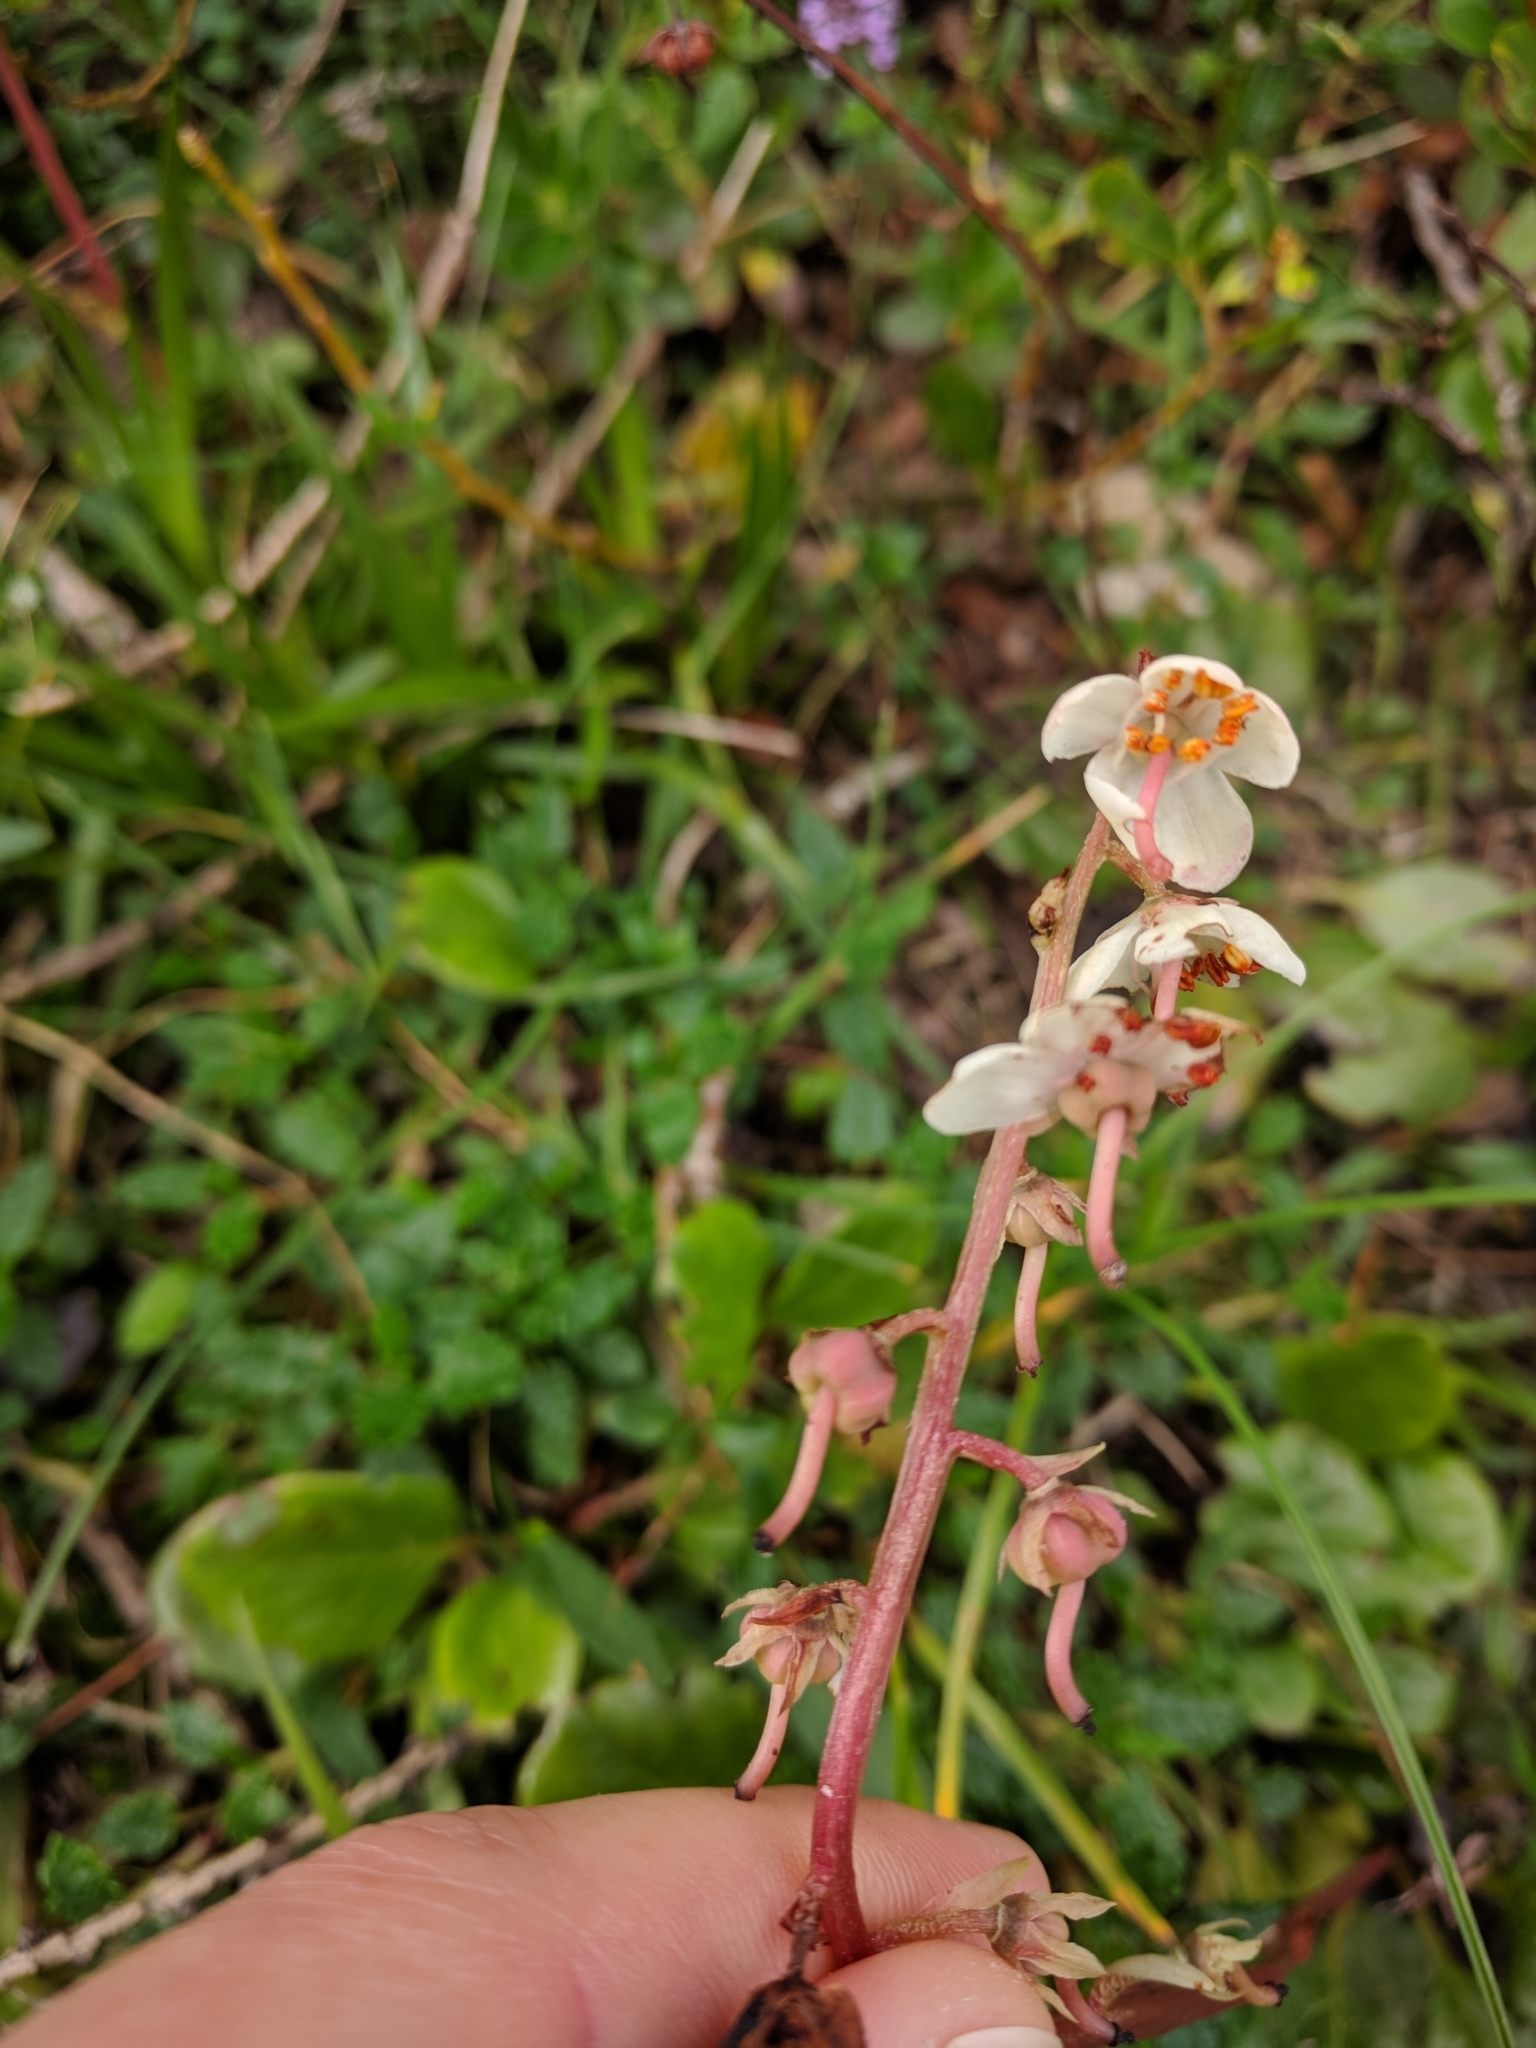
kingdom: Plantae
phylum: Tracheophyta
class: Magnoliopsida
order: Ericales
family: Ericaceae
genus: Pyrola
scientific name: Pyrola rotundifolia
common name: Round-leaved wintergreen
